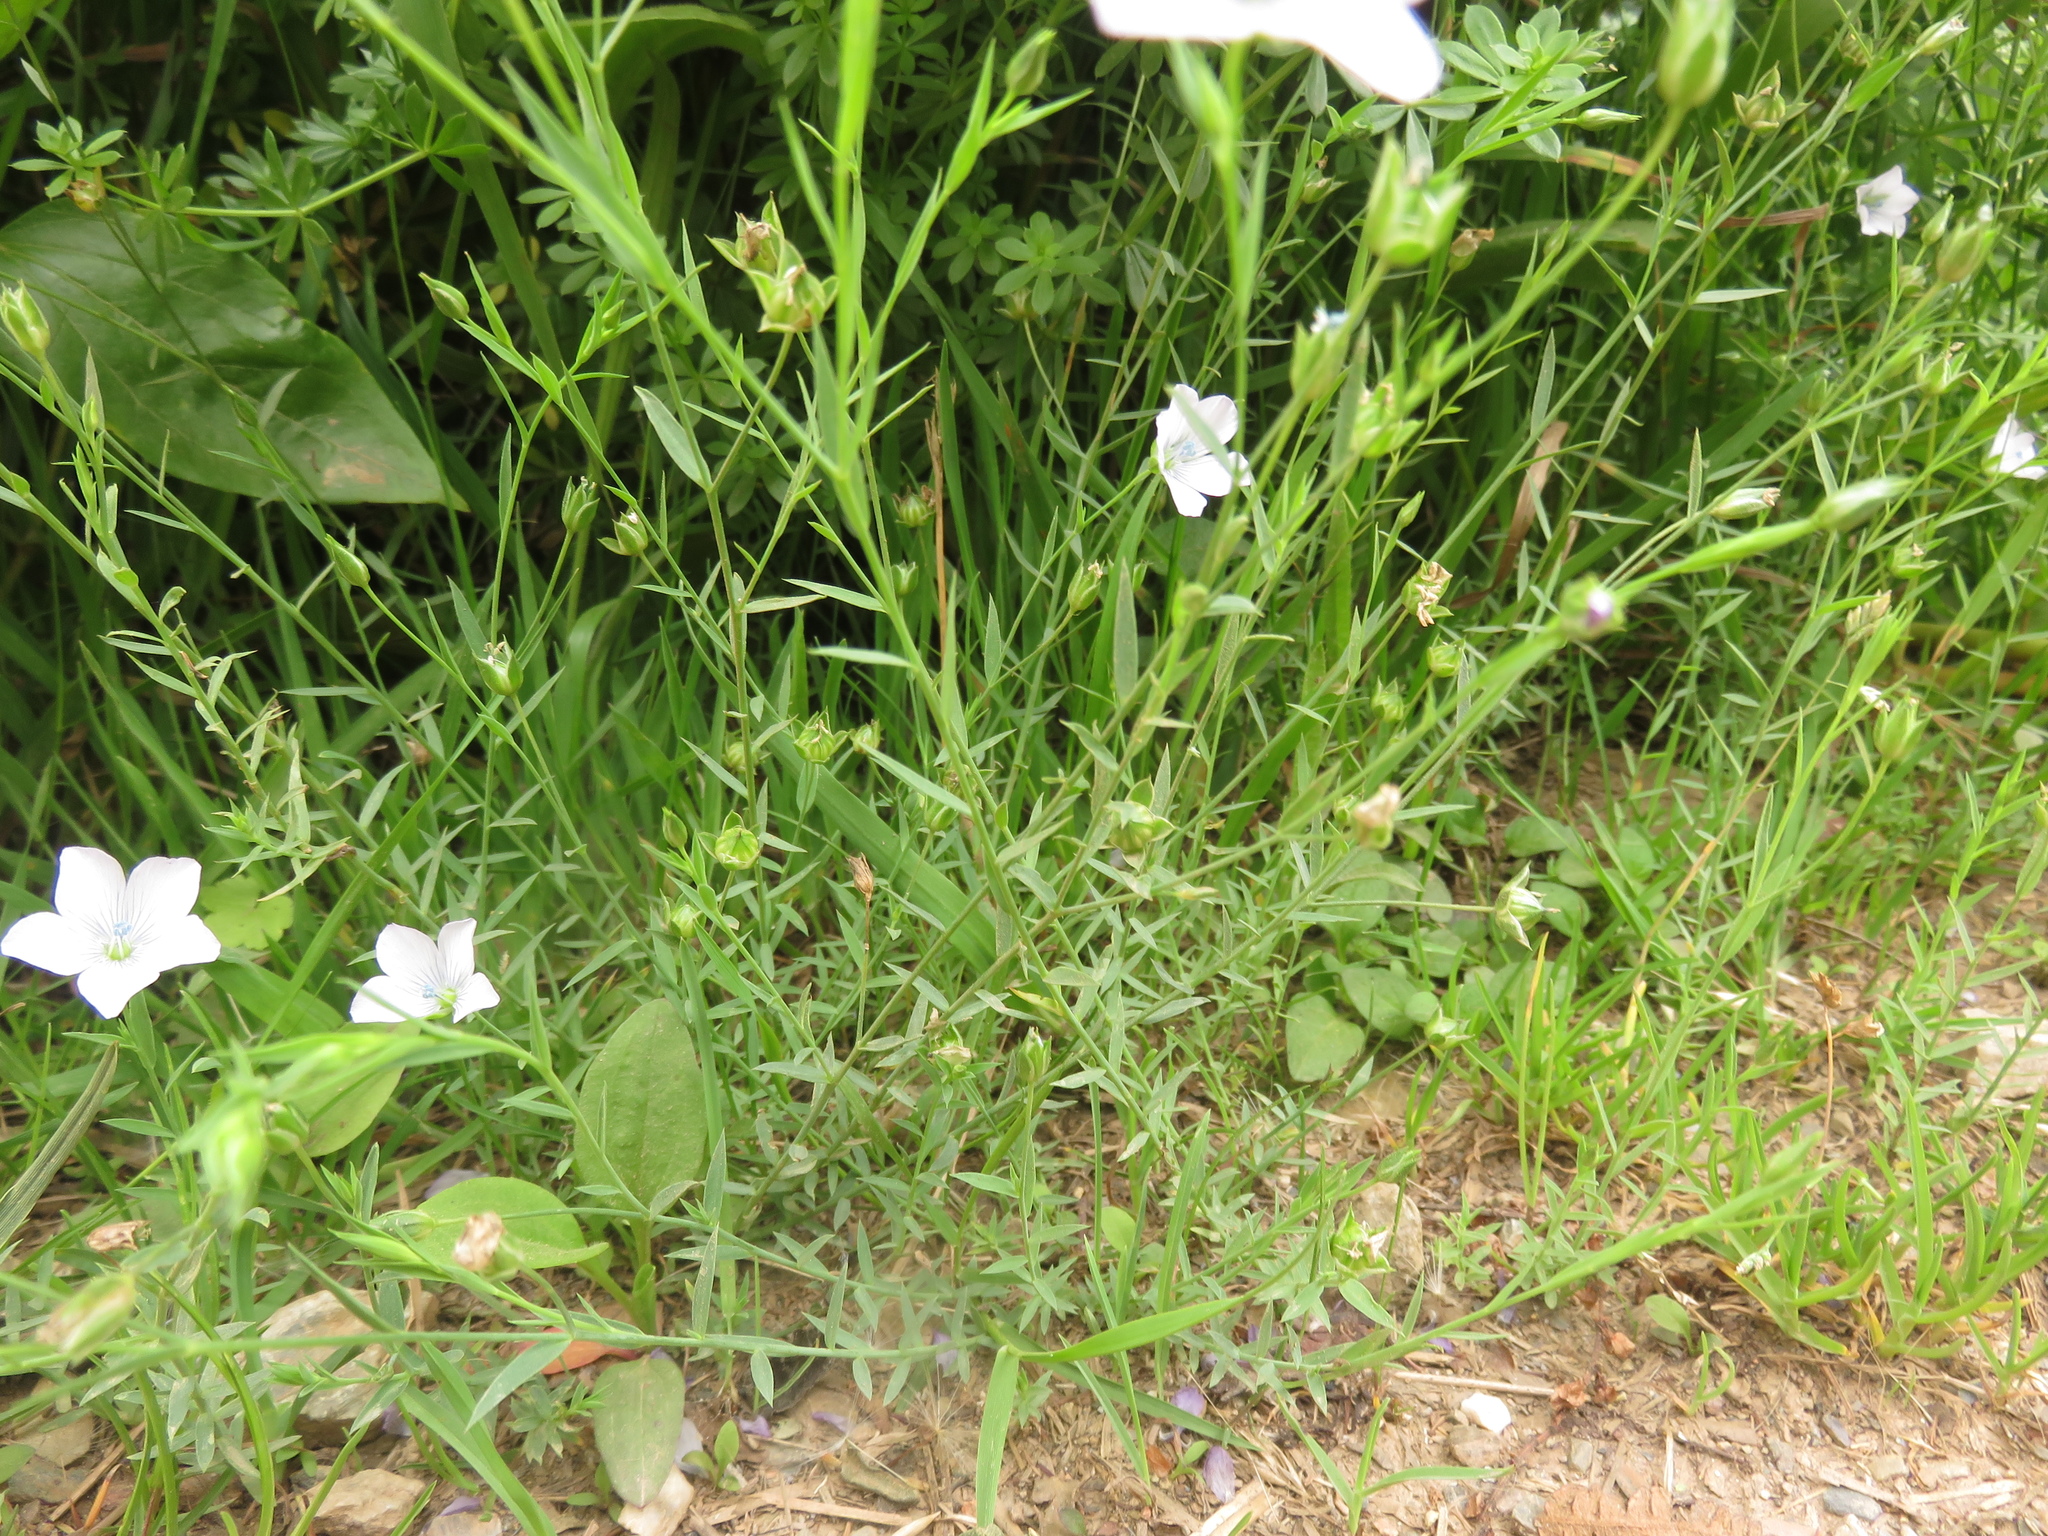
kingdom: Plantae
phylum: Tracheophyta
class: Magnoliopsida
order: Malpighiales
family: Linaceae
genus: Linum
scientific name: Linum bienne
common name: Pale flax
